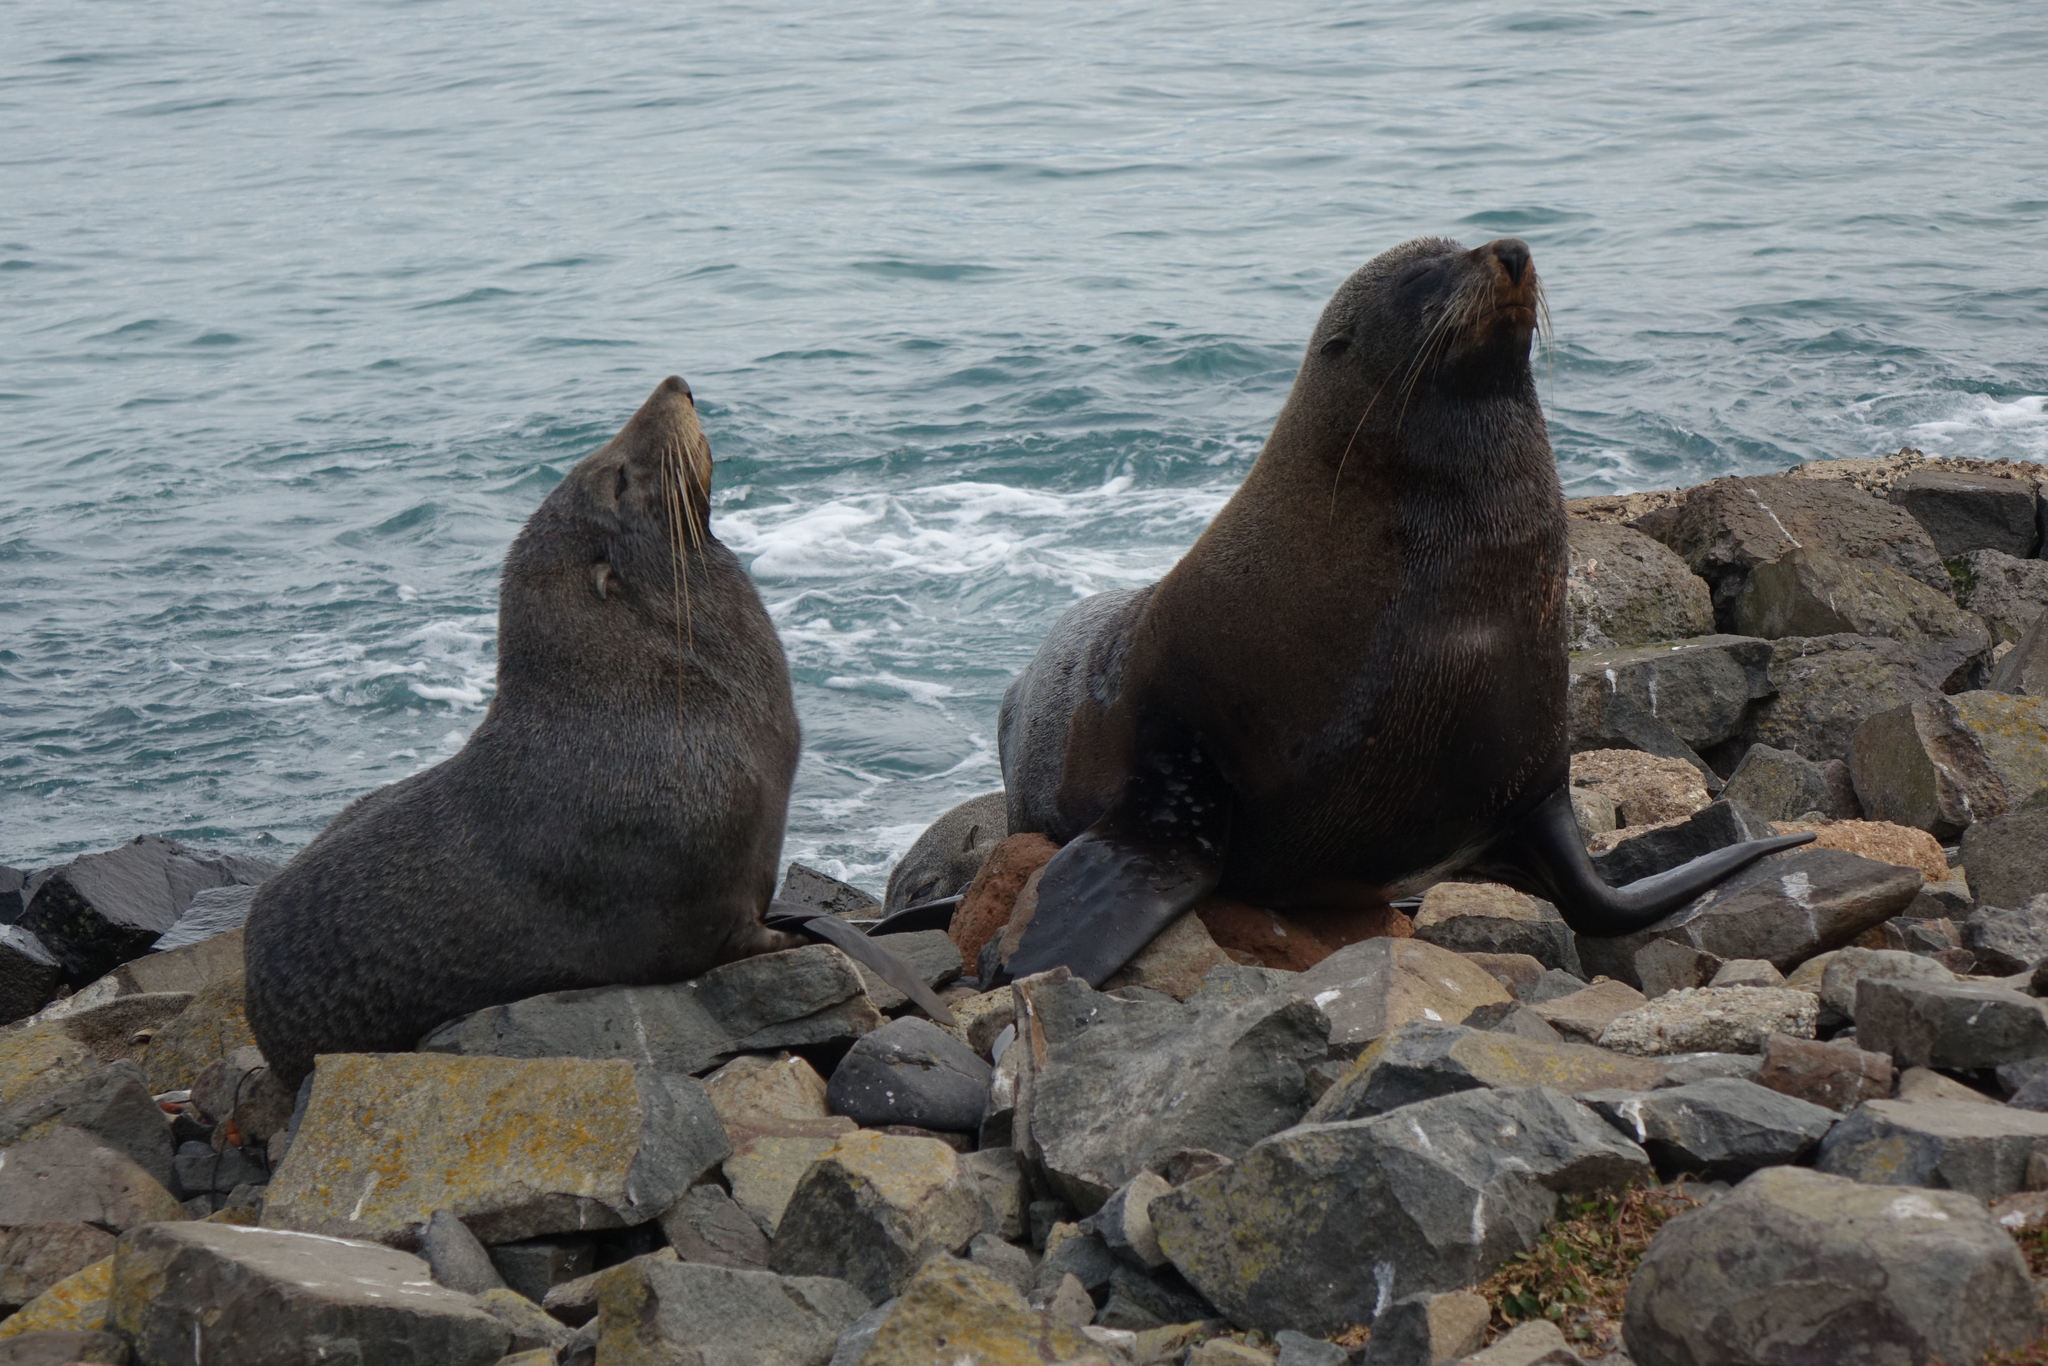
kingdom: Animalia
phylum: Chordata
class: Mammalia
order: Carnivora
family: Otariidae
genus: Arctocephalus
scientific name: Arctocephalus forsteri
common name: New zealand fur seal
